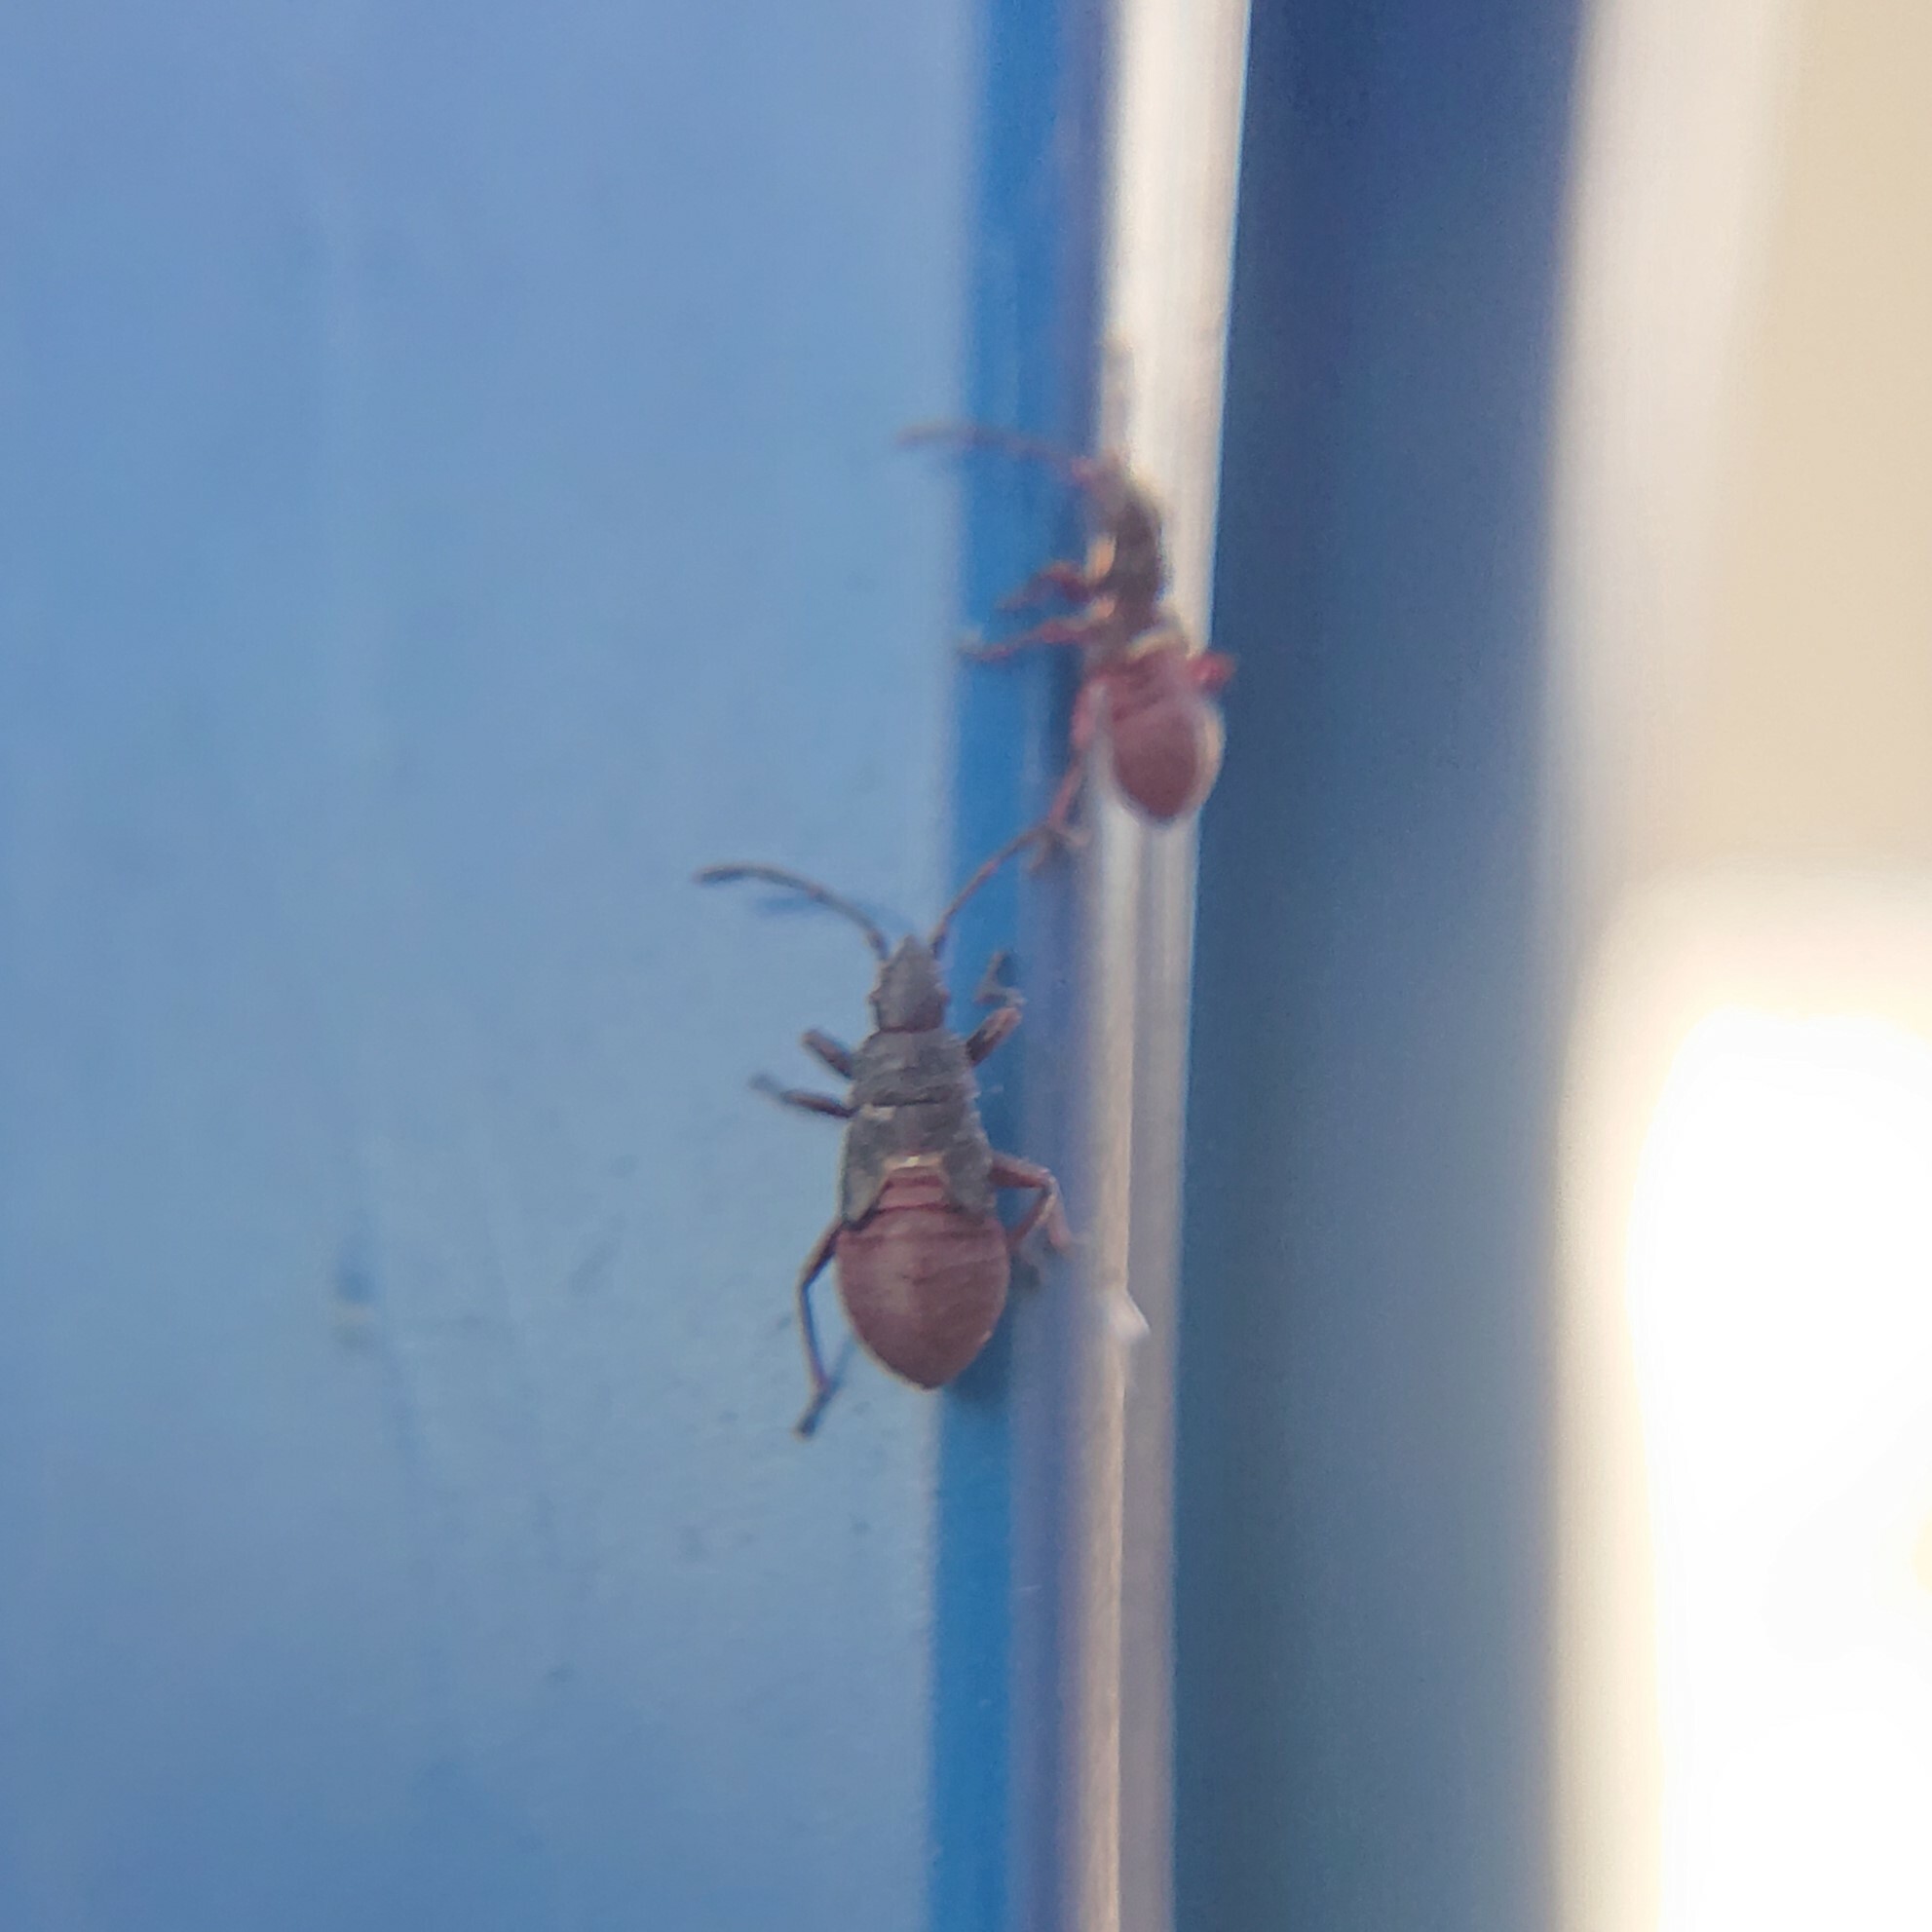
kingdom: Animalia
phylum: Arthropoda
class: Insecta
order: Hemiptera
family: Oxycarenidae
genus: Oxycarenus
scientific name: Oxycarenus lavaterae
